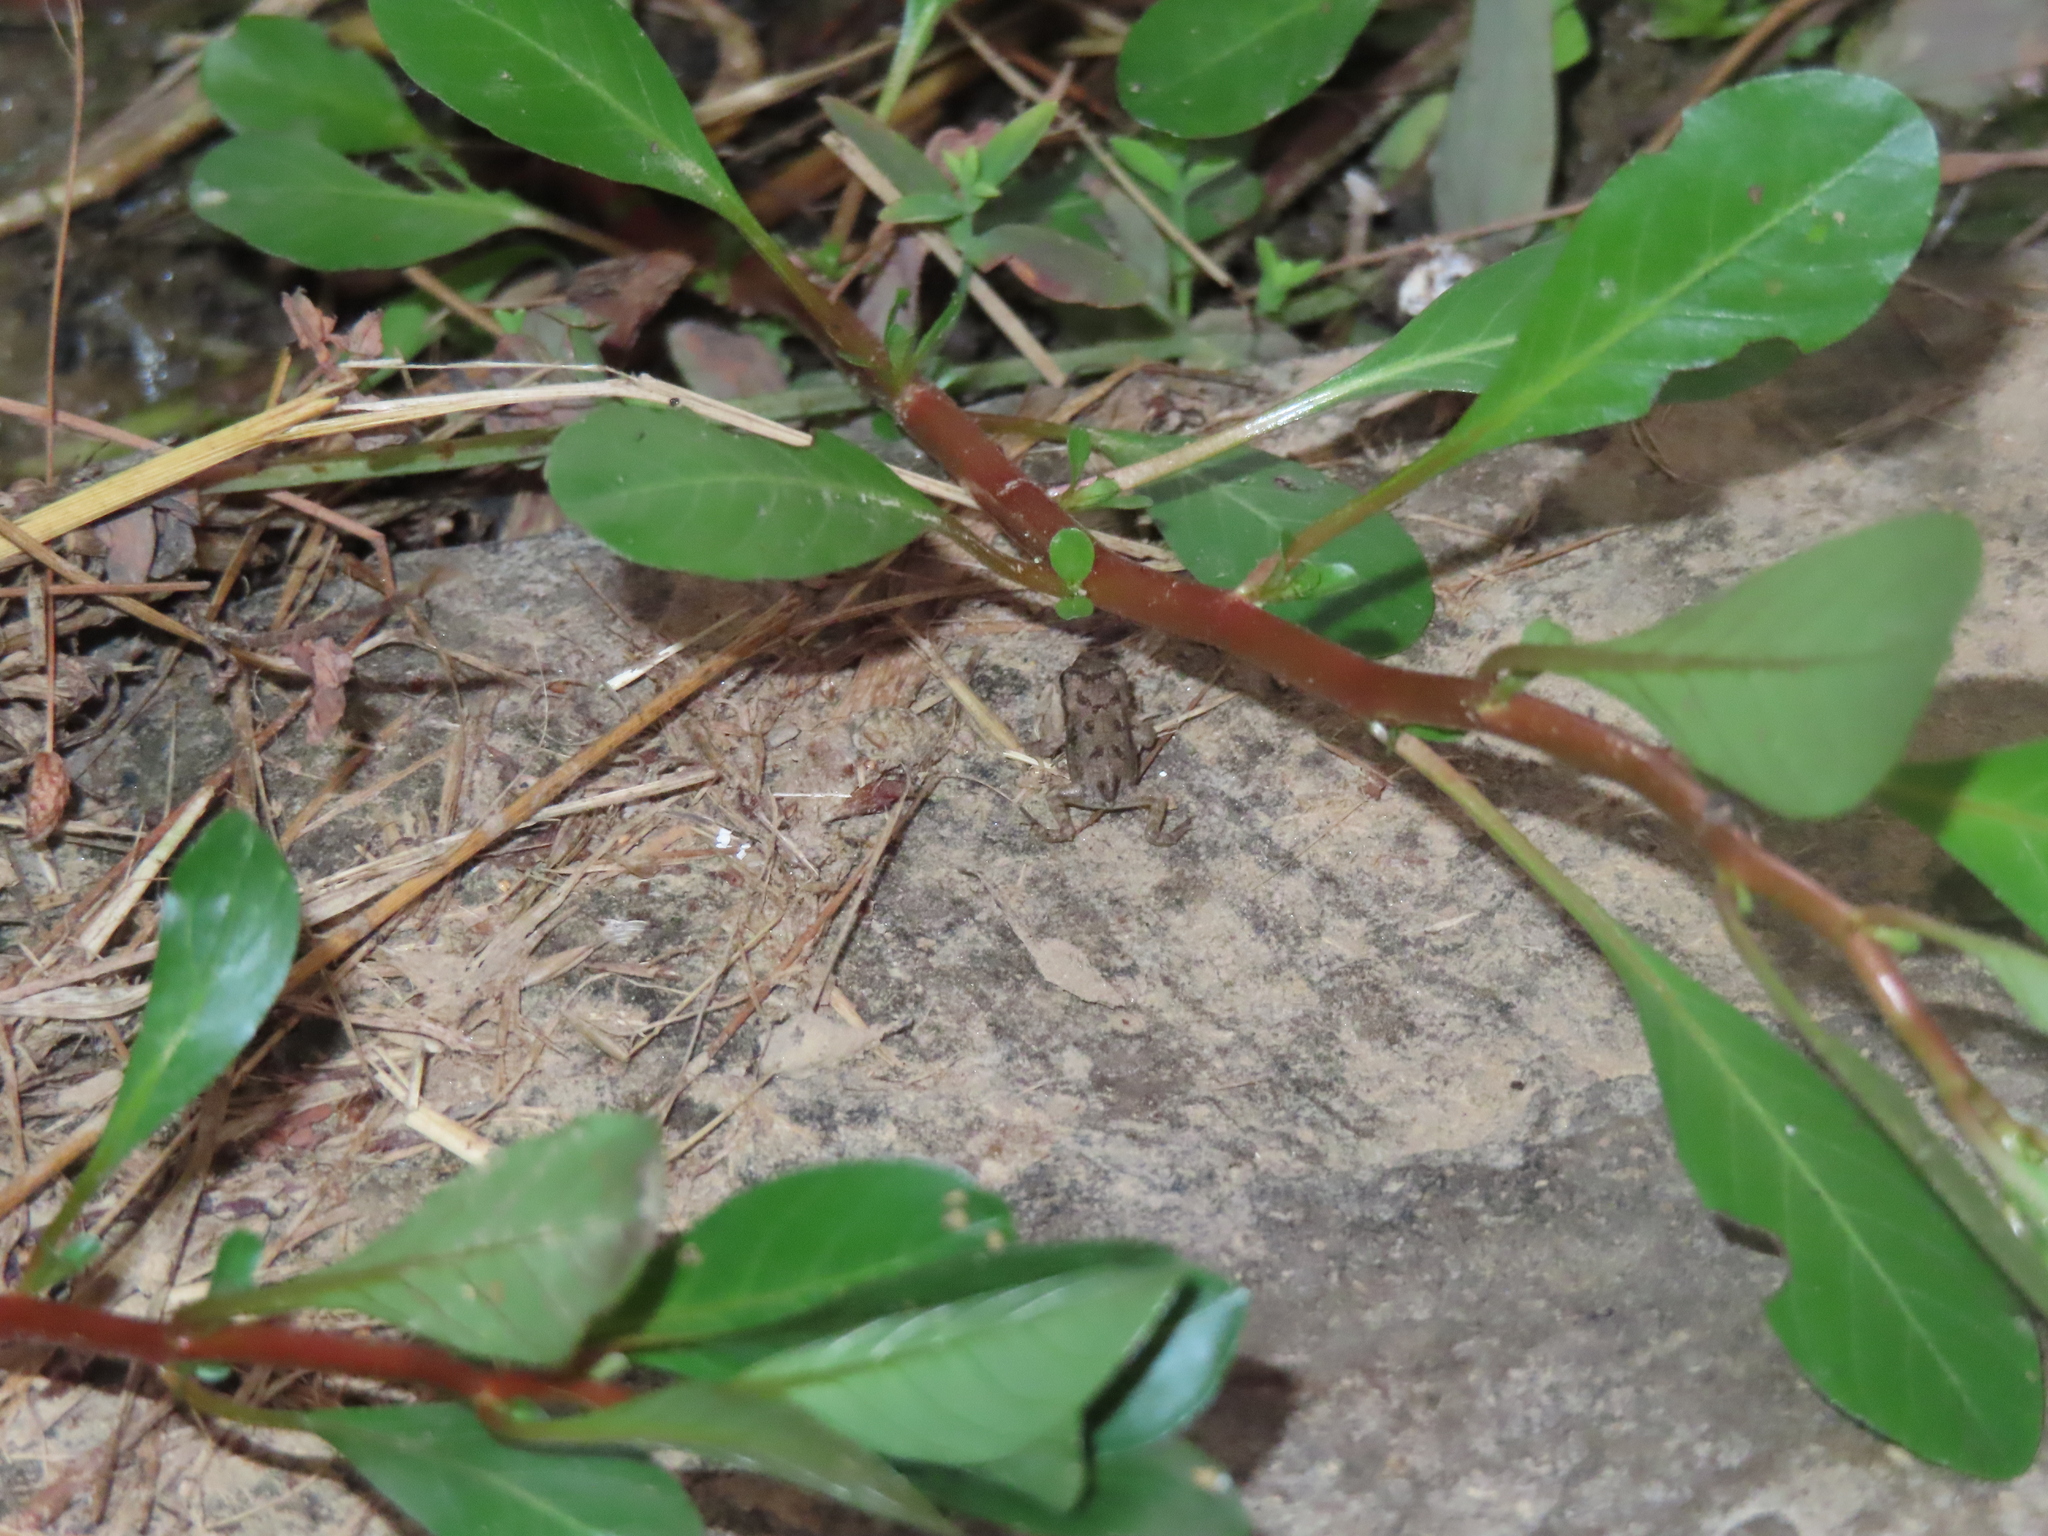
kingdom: Animalia
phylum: Chordata
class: Amphibia
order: Anura
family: Bufonidae
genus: Anaxyrus
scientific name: Anaxyrus fowleri
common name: Fowler's toad
